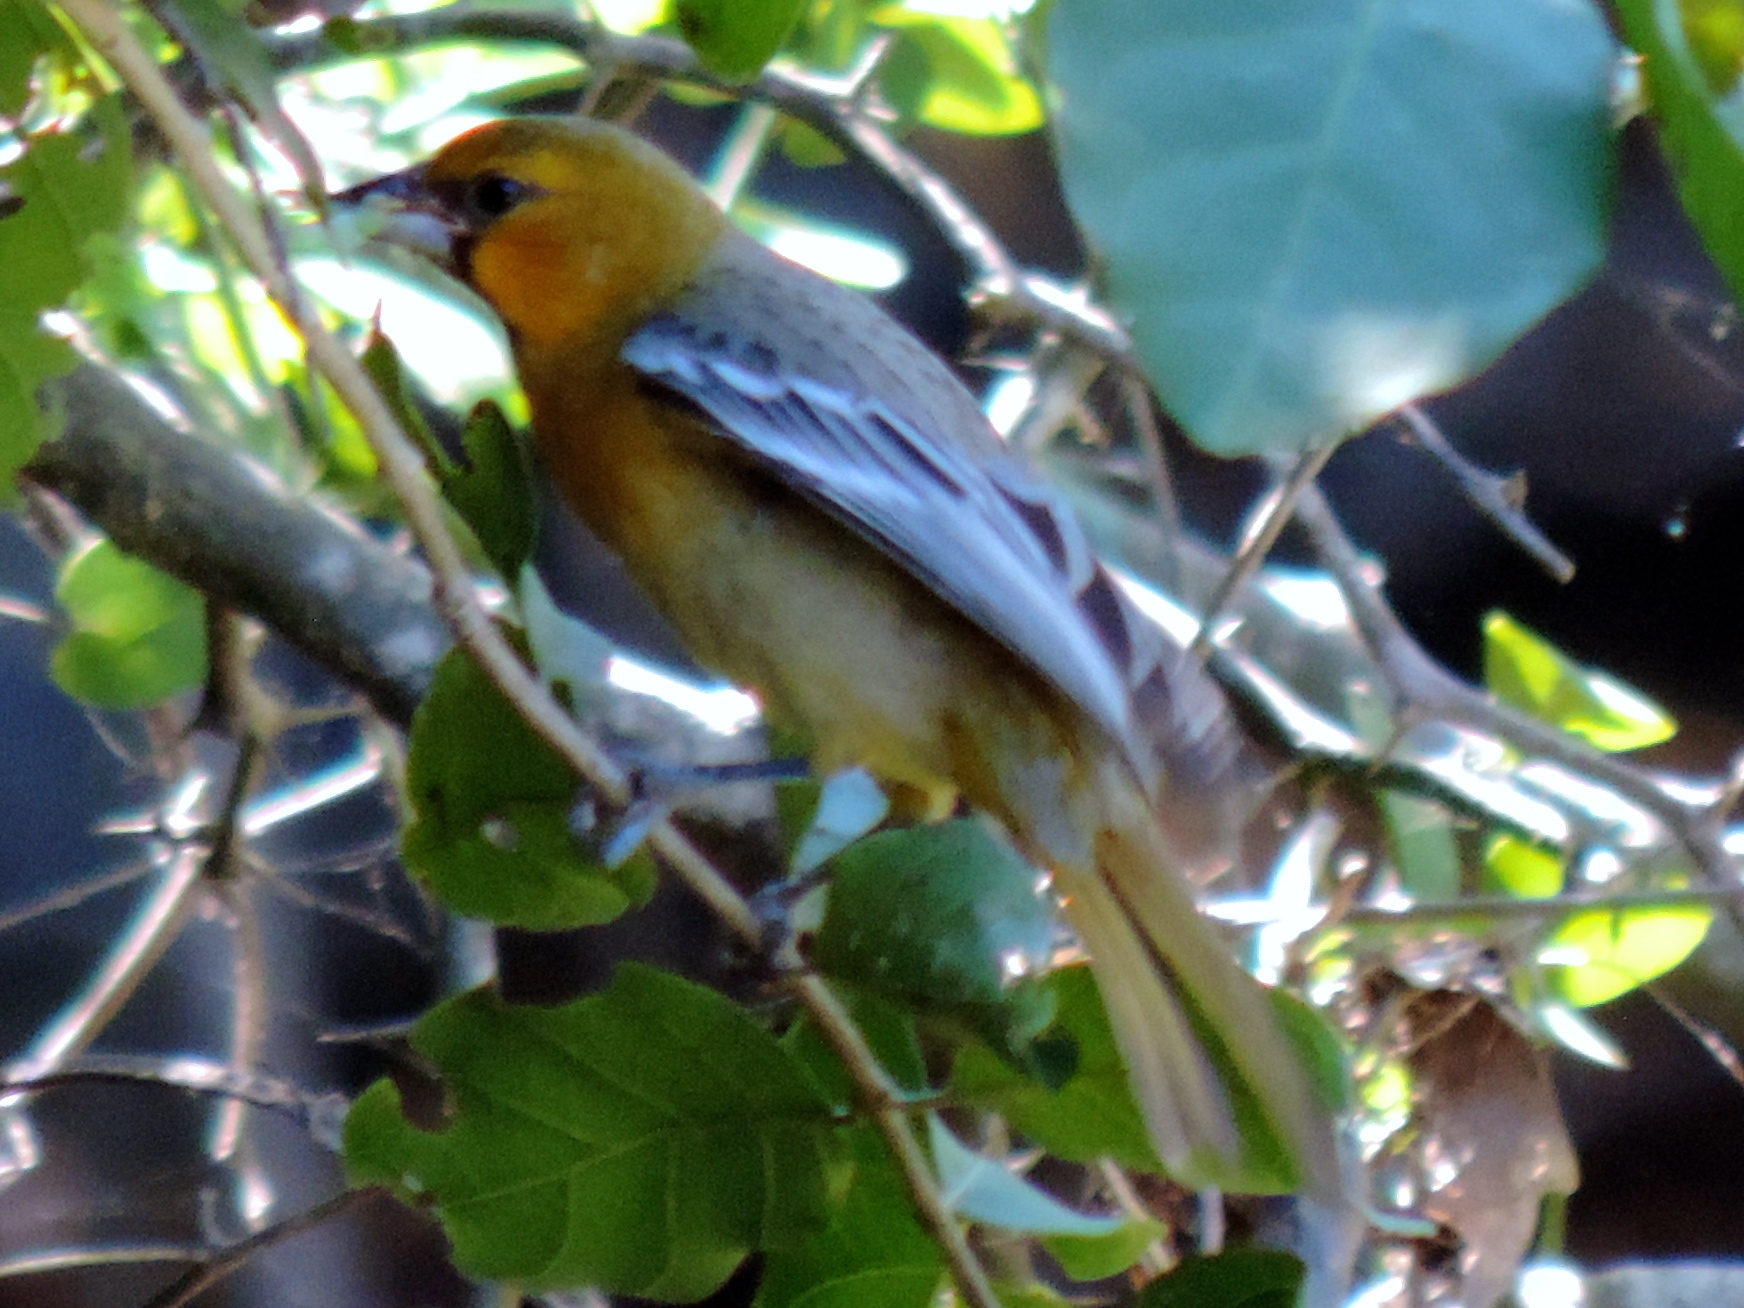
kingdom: Animalia
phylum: Chordata
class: Aves
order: Passeriformes
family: Icteridae
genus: Icterus
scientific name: Icterus pustulatus
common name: Streak-backed oriole
